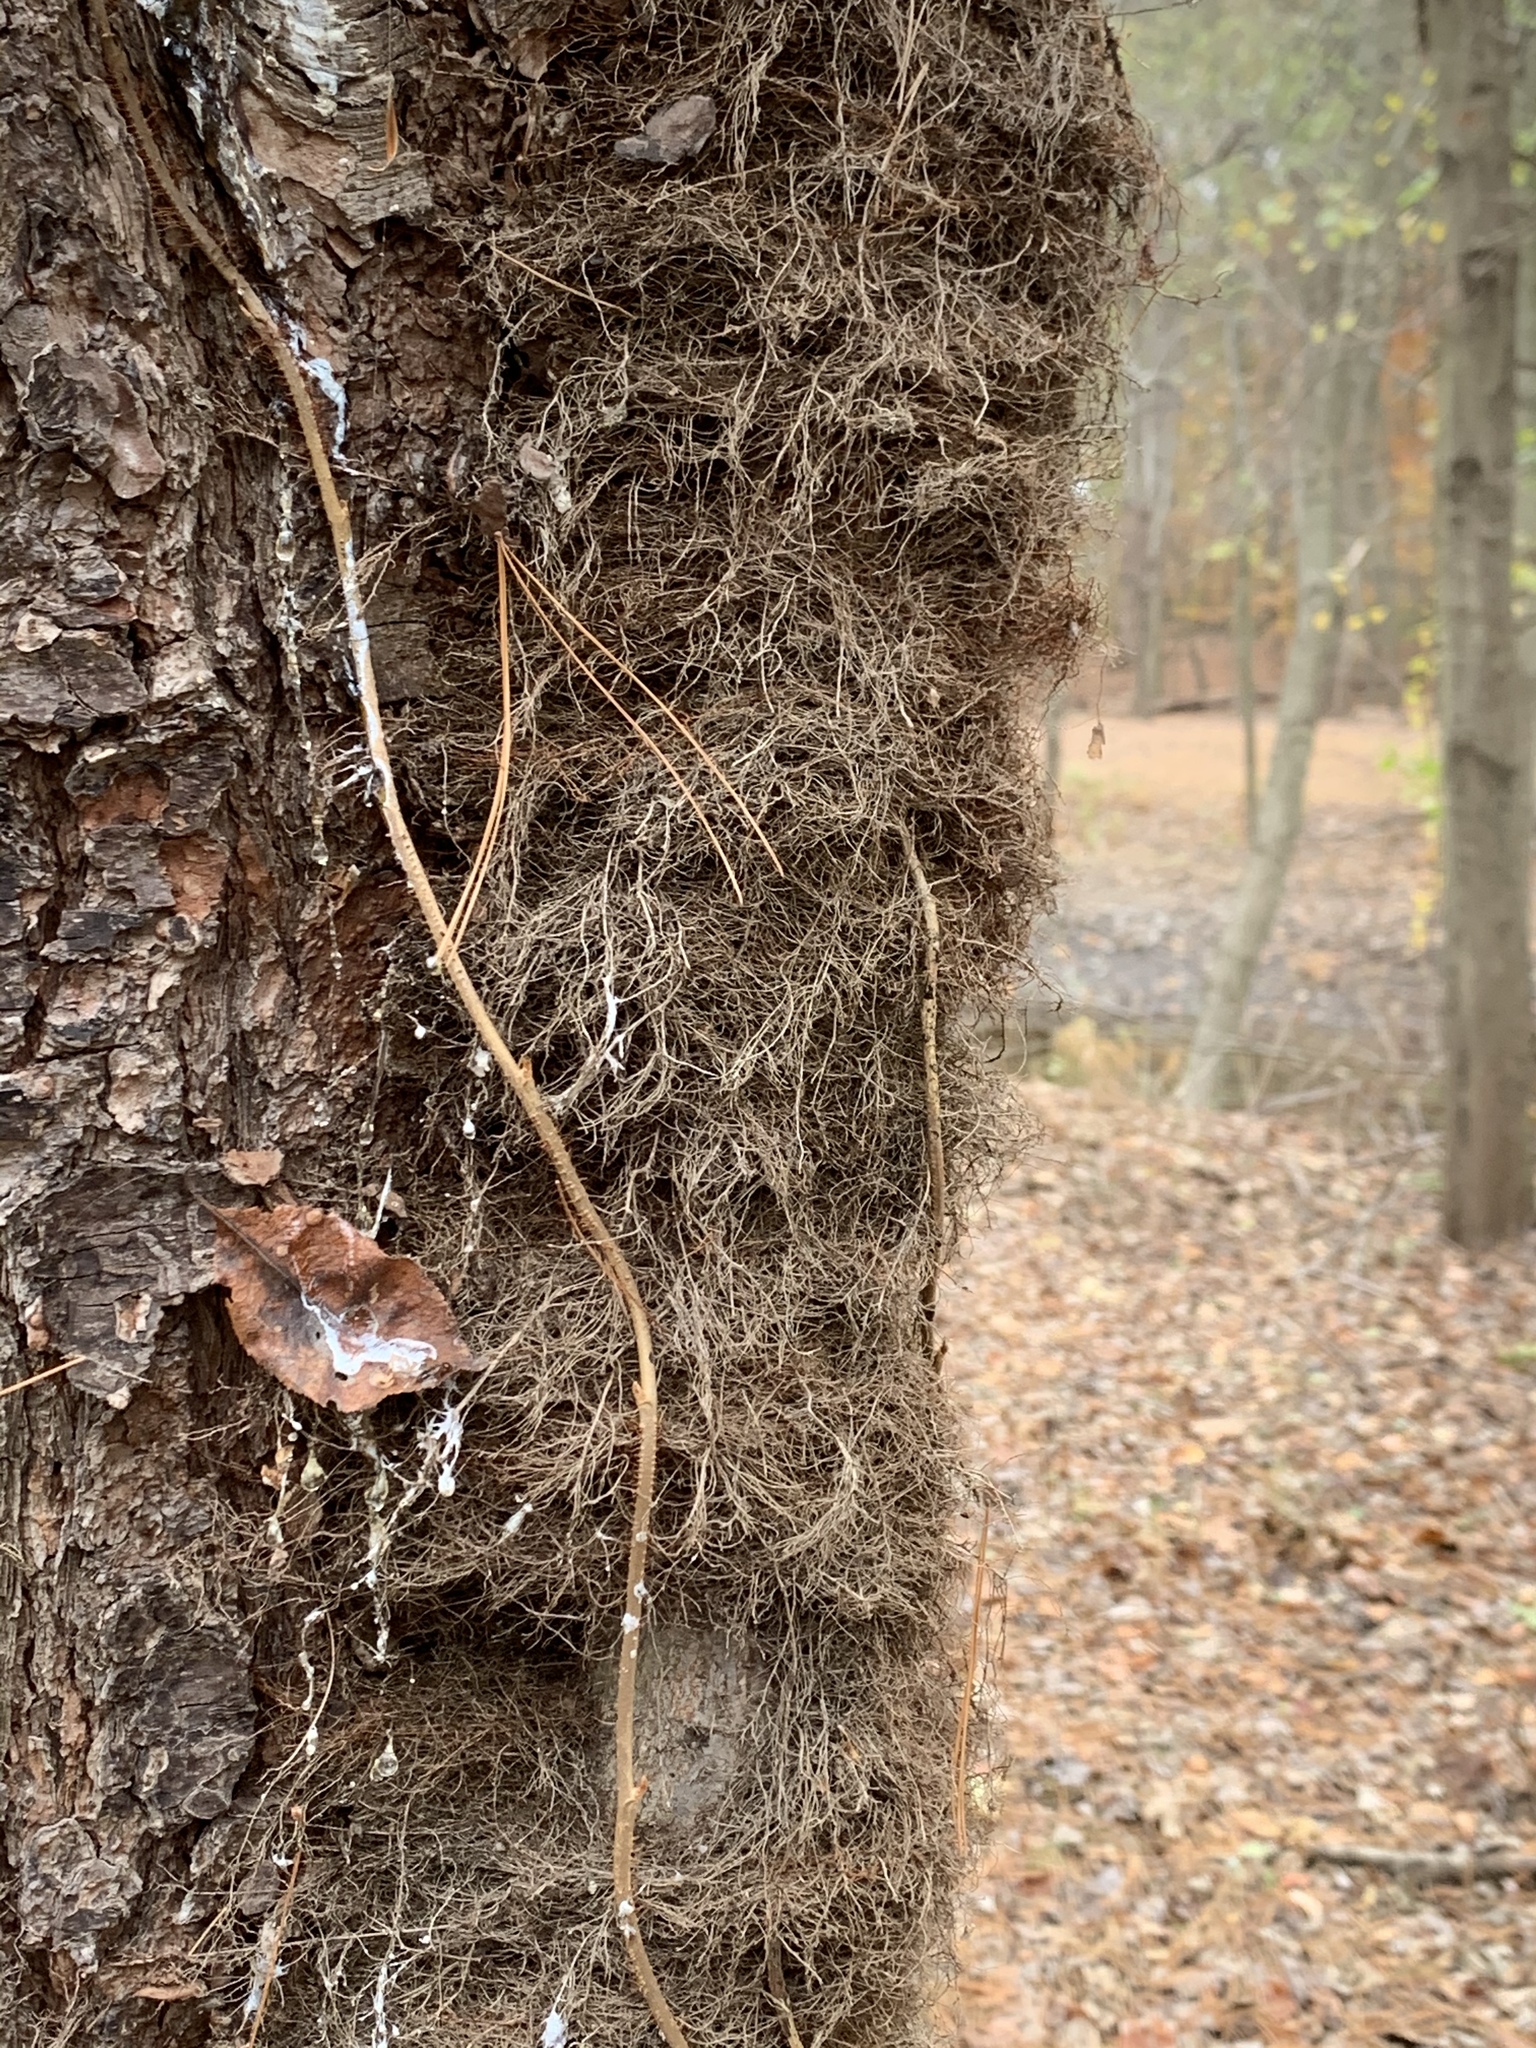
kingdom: Plantae
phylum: Tracheophyta
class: Magnoliopsida
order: Sapindales
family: Anacardiaceae
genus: Toxicodendron
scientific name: Toxicodendron radicans
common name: Poison ivy
